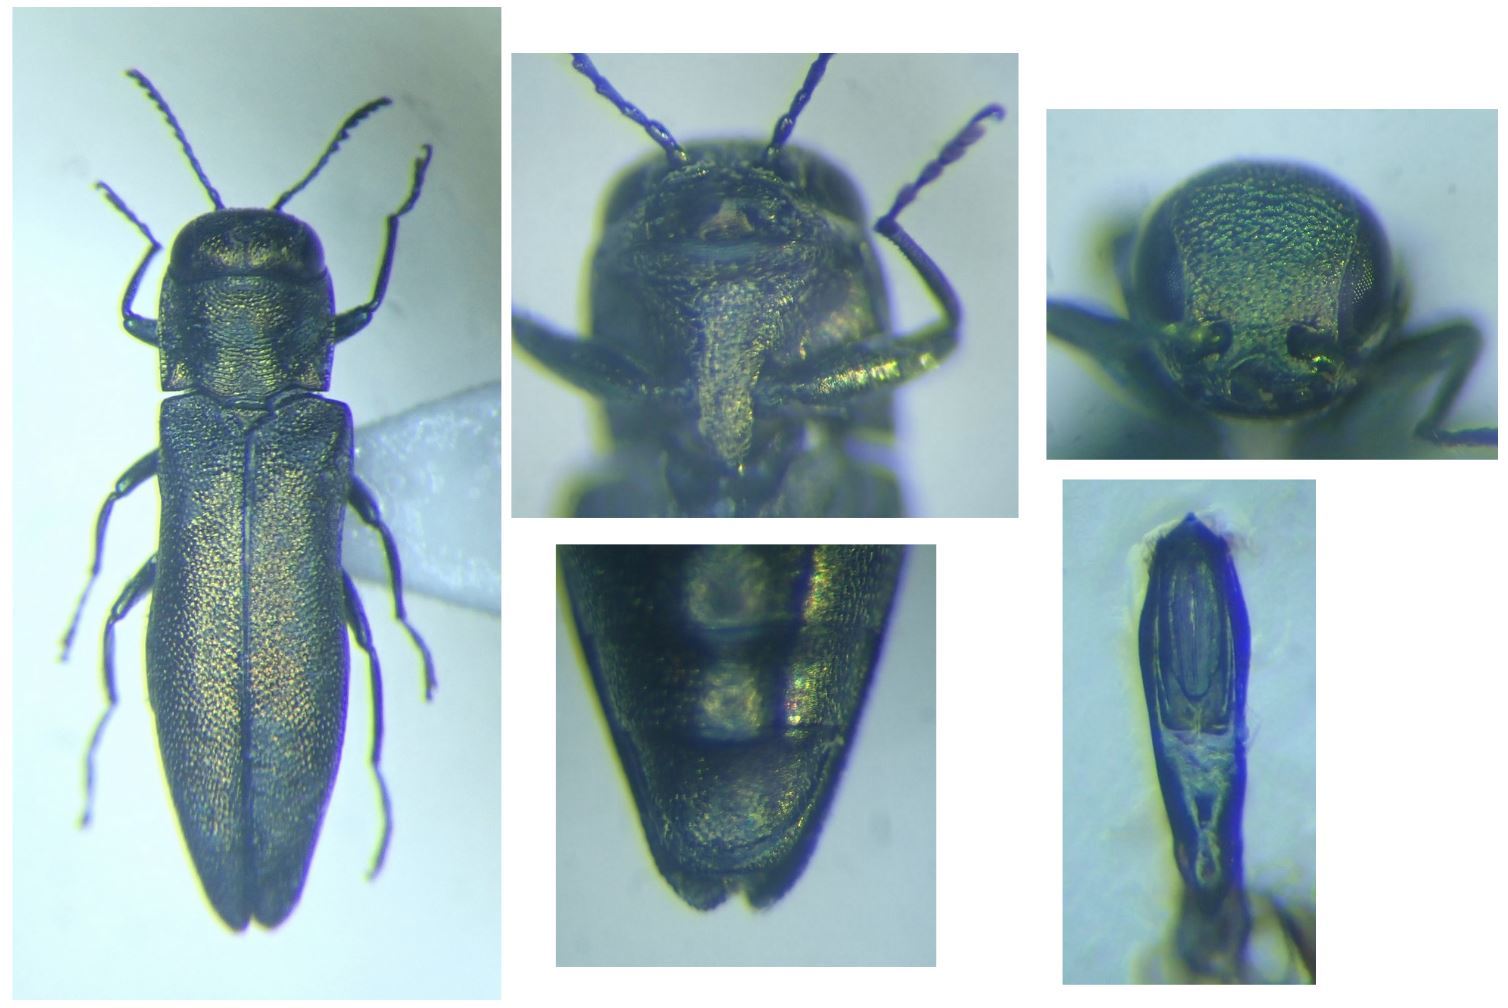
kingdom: Animalia
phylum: Arthropoda
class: Insecta
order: Coleoptera
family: Buprestidae
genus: Agrilus
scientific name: Agrilus viridicaerulans
